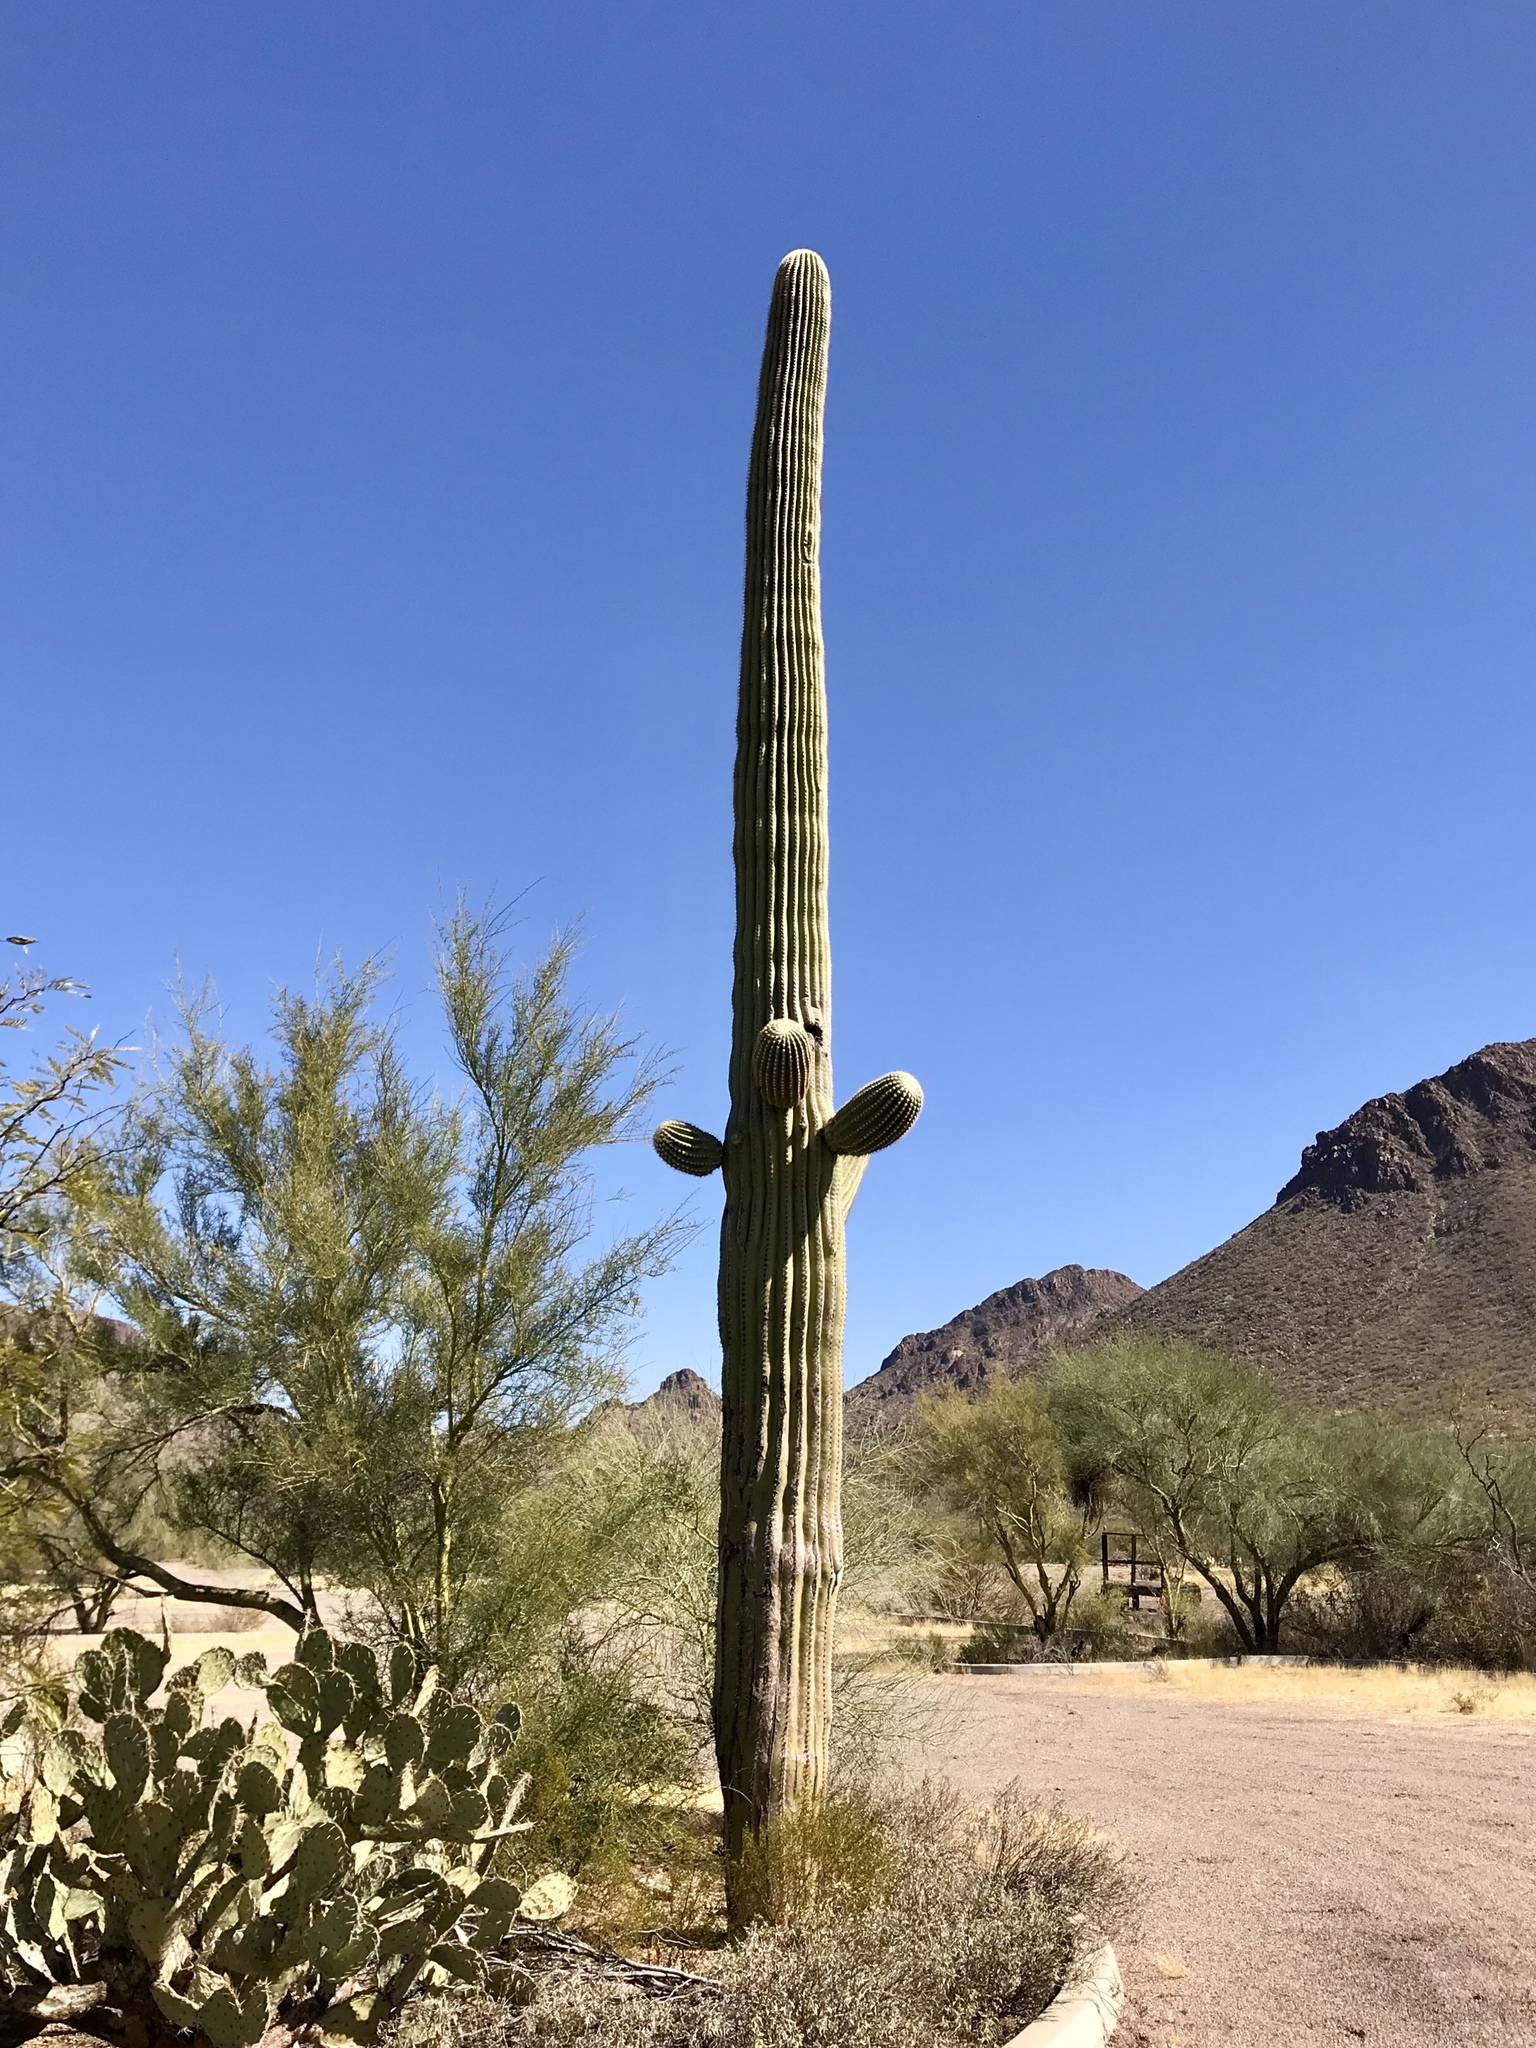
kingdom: Plantae
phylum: Tracheophyta
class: Magnoliopsida
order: Caryophyllales
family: Cactaceae
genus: Carnegiea
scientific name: Carnegiea gigantea
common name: Saguaro
